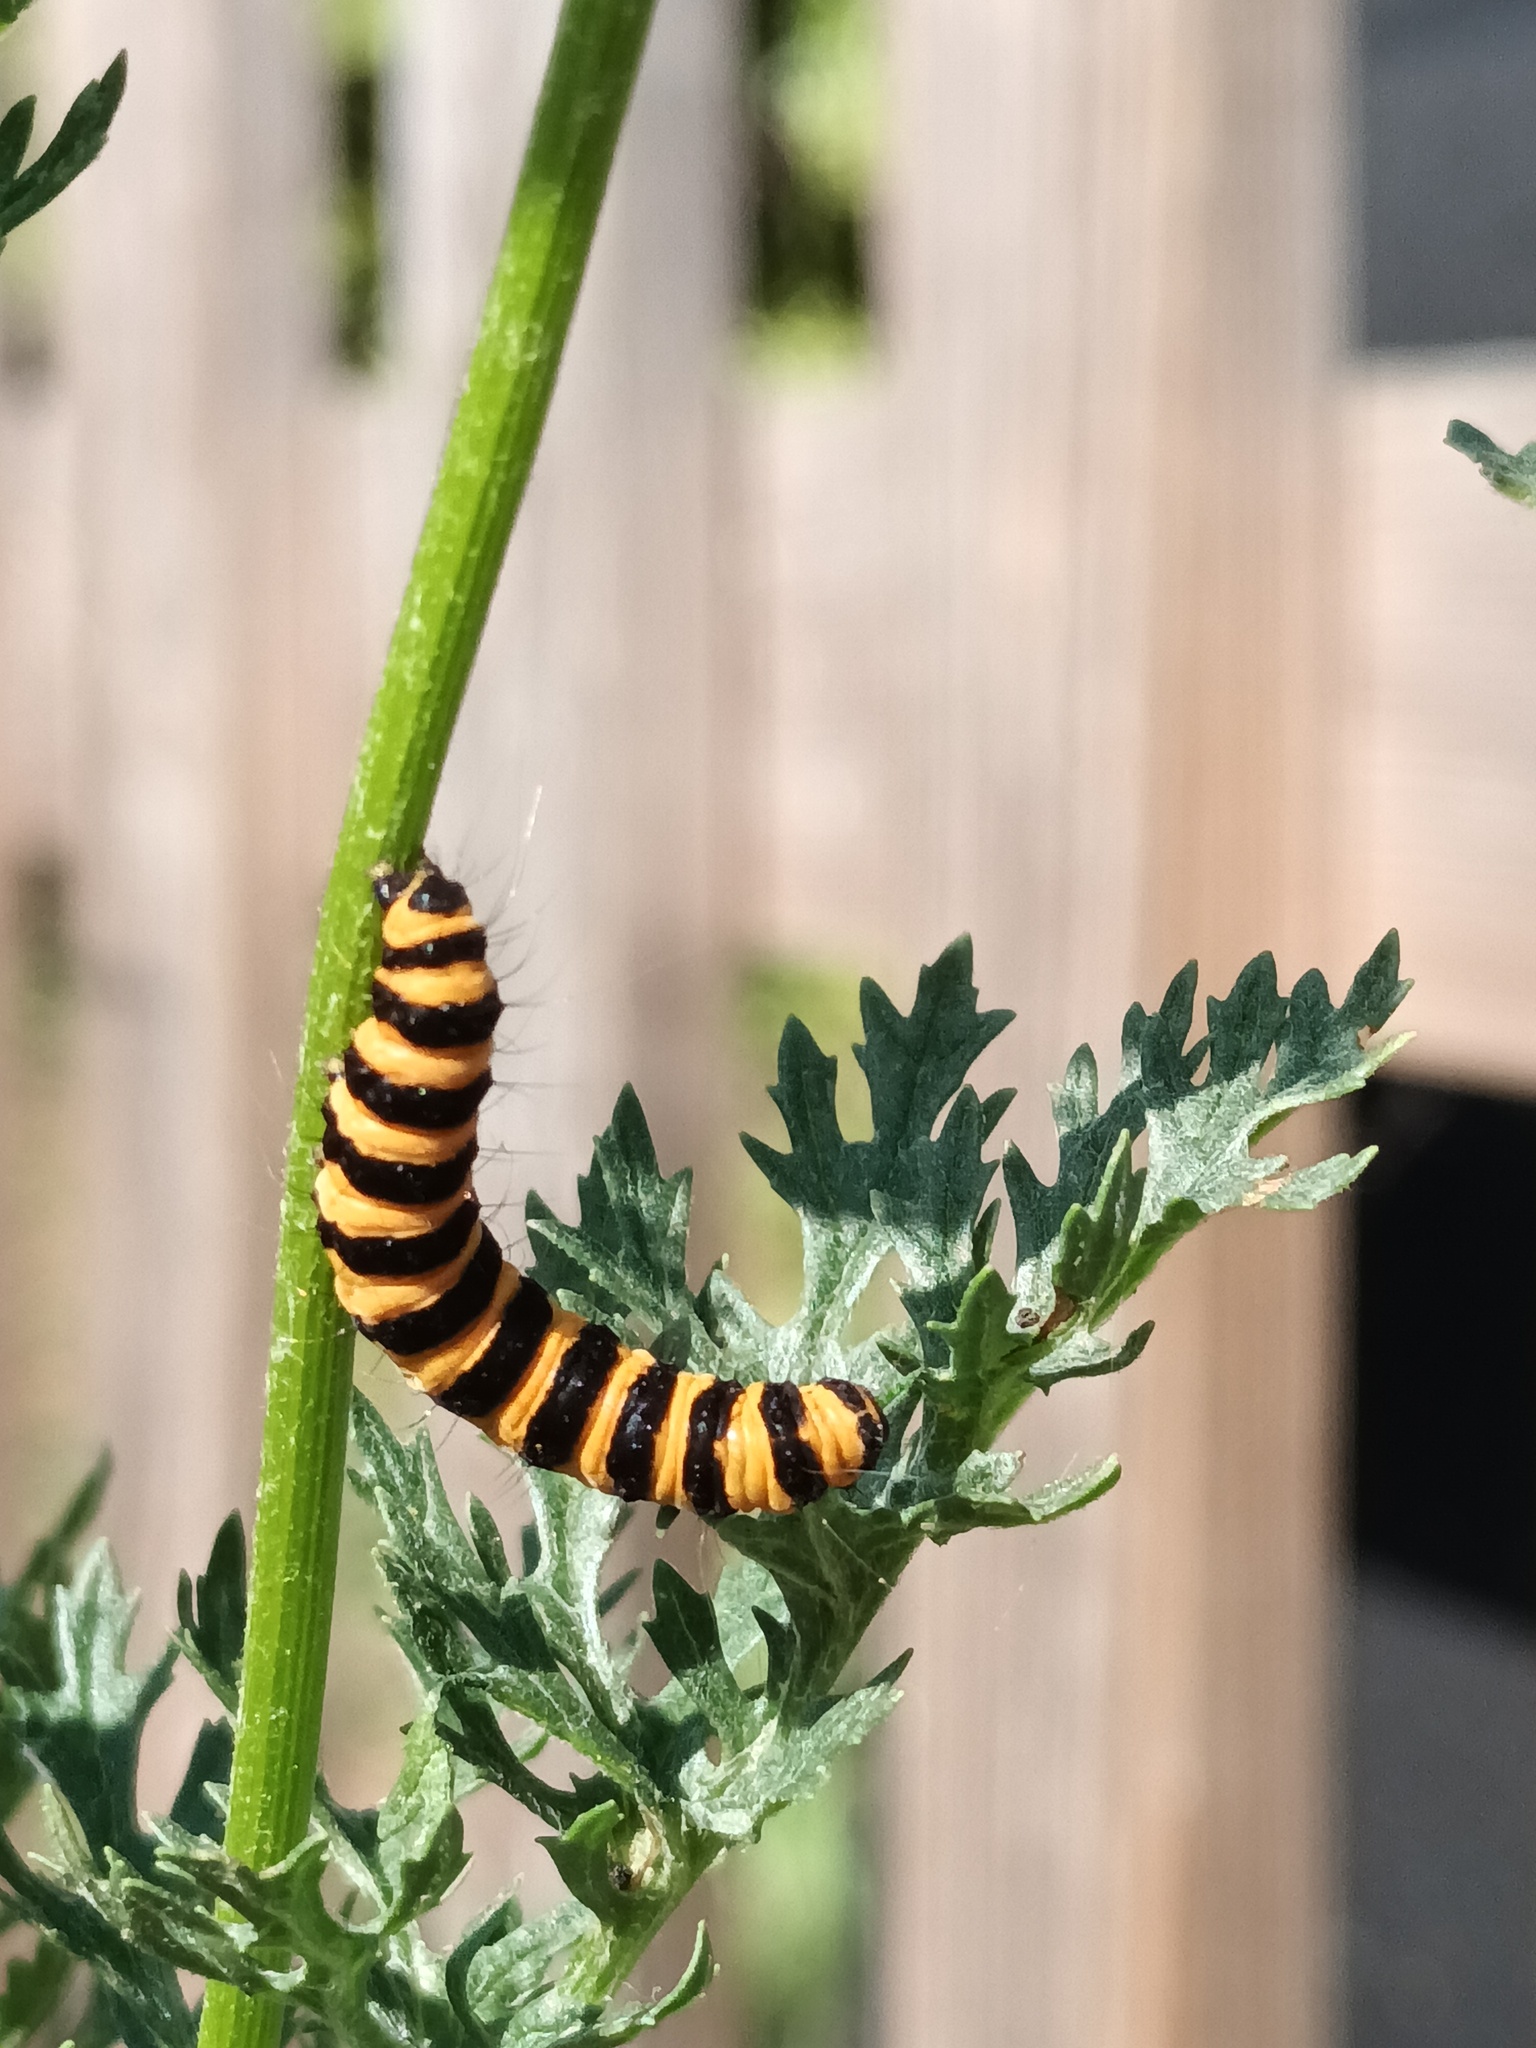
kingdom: Animalia
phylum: Arthropoda
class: Insecta
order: Lepidoptera
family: Erebidae
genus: Tyria
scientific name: Tyria jacobaeae
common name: Cinnabar
